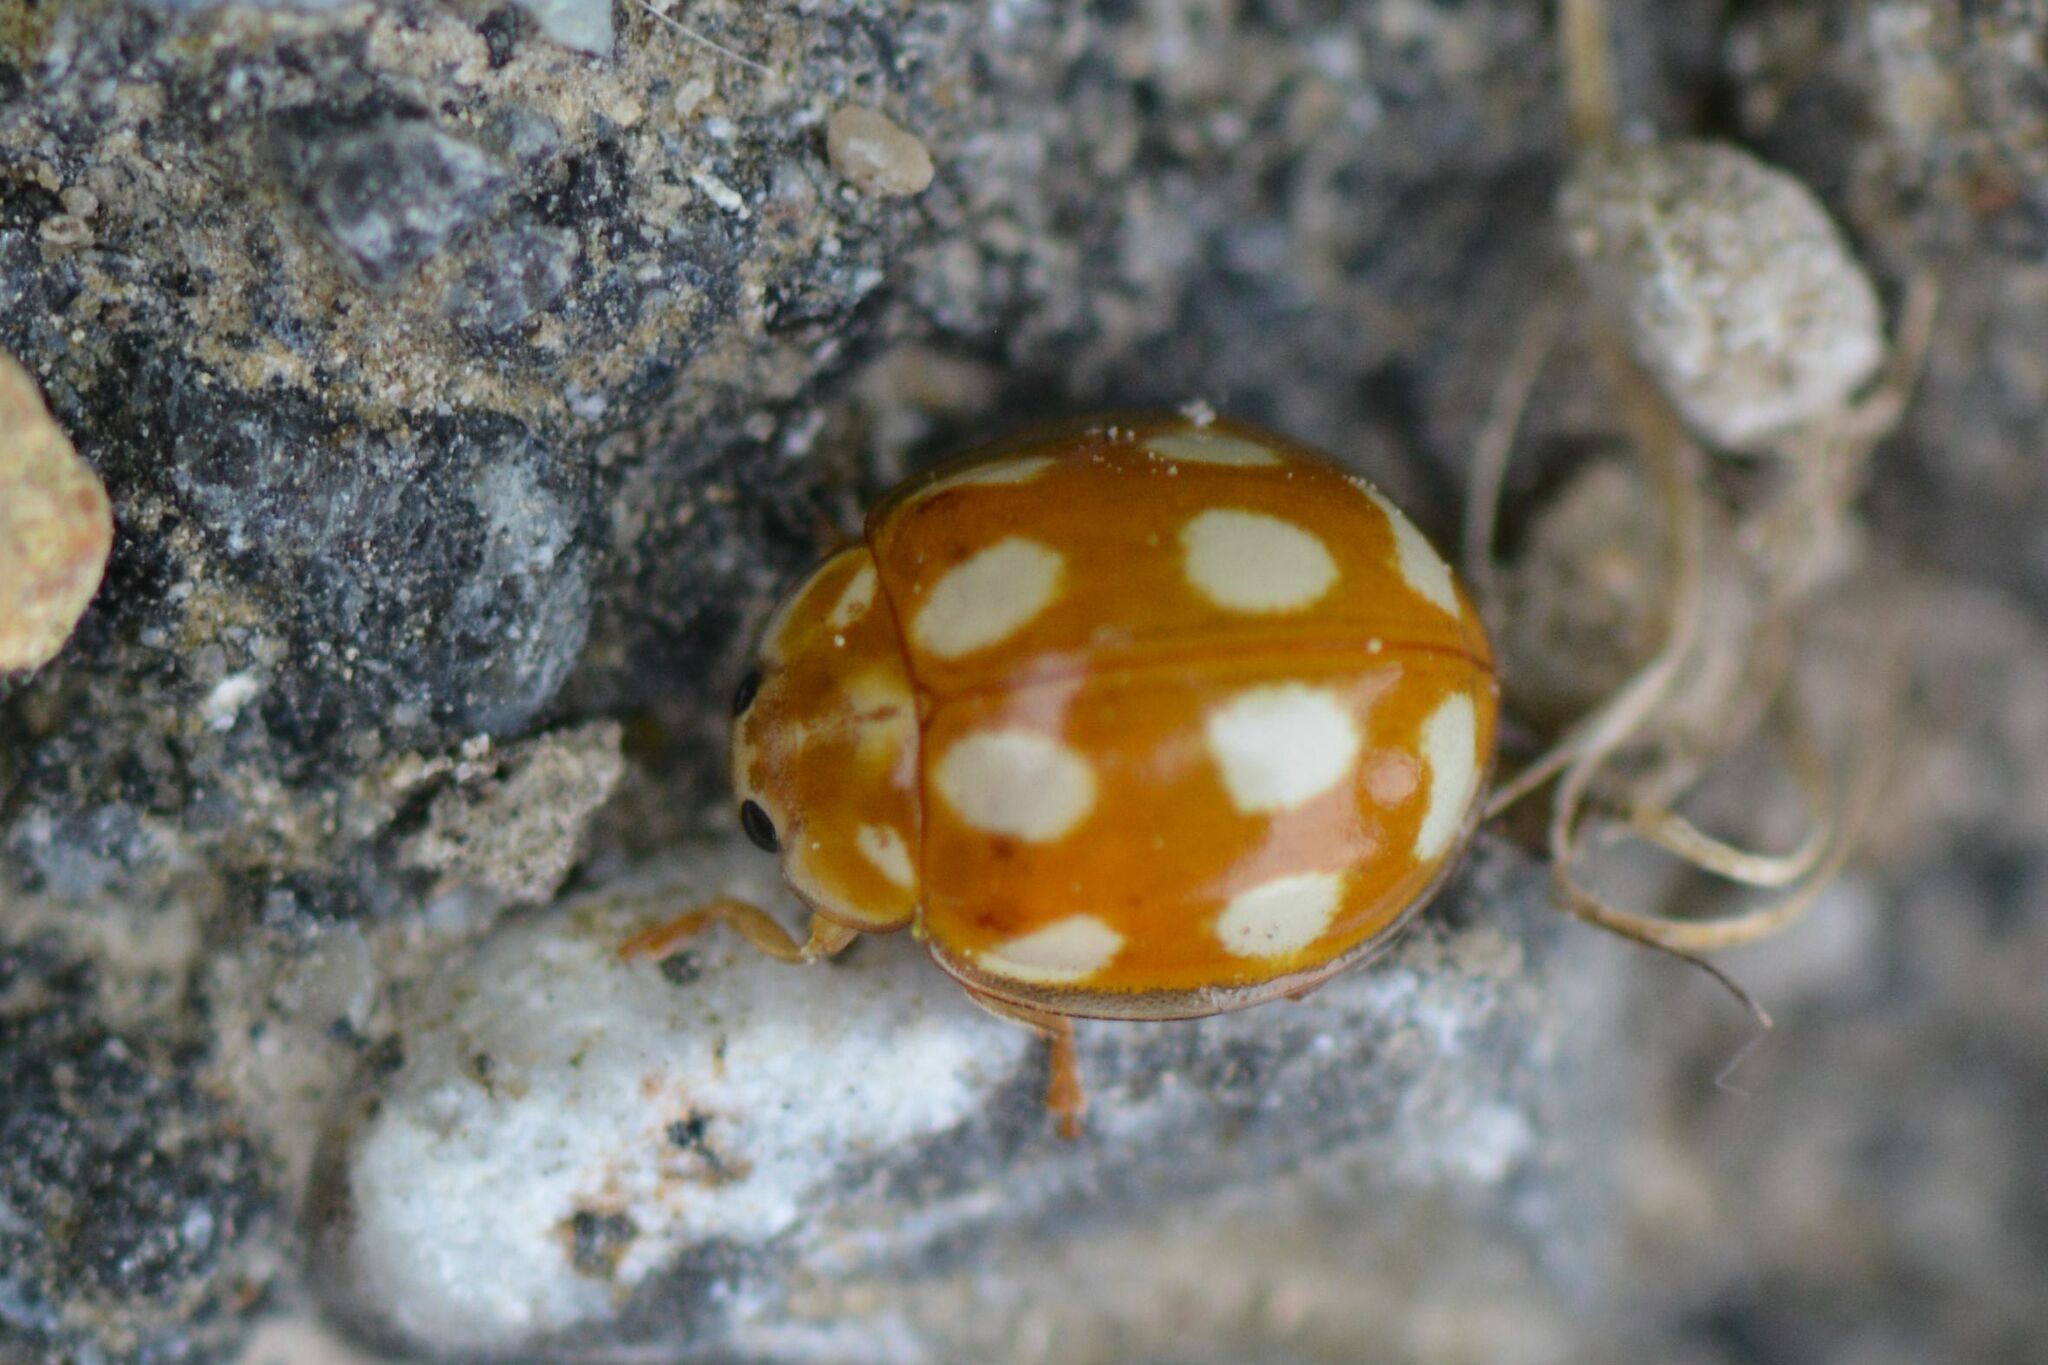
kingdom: Animalia
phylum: Arthropoda
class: Insecta
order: Coleoptera
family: Coccinellidae
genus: Calvia
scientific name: Calvia decemguttata
